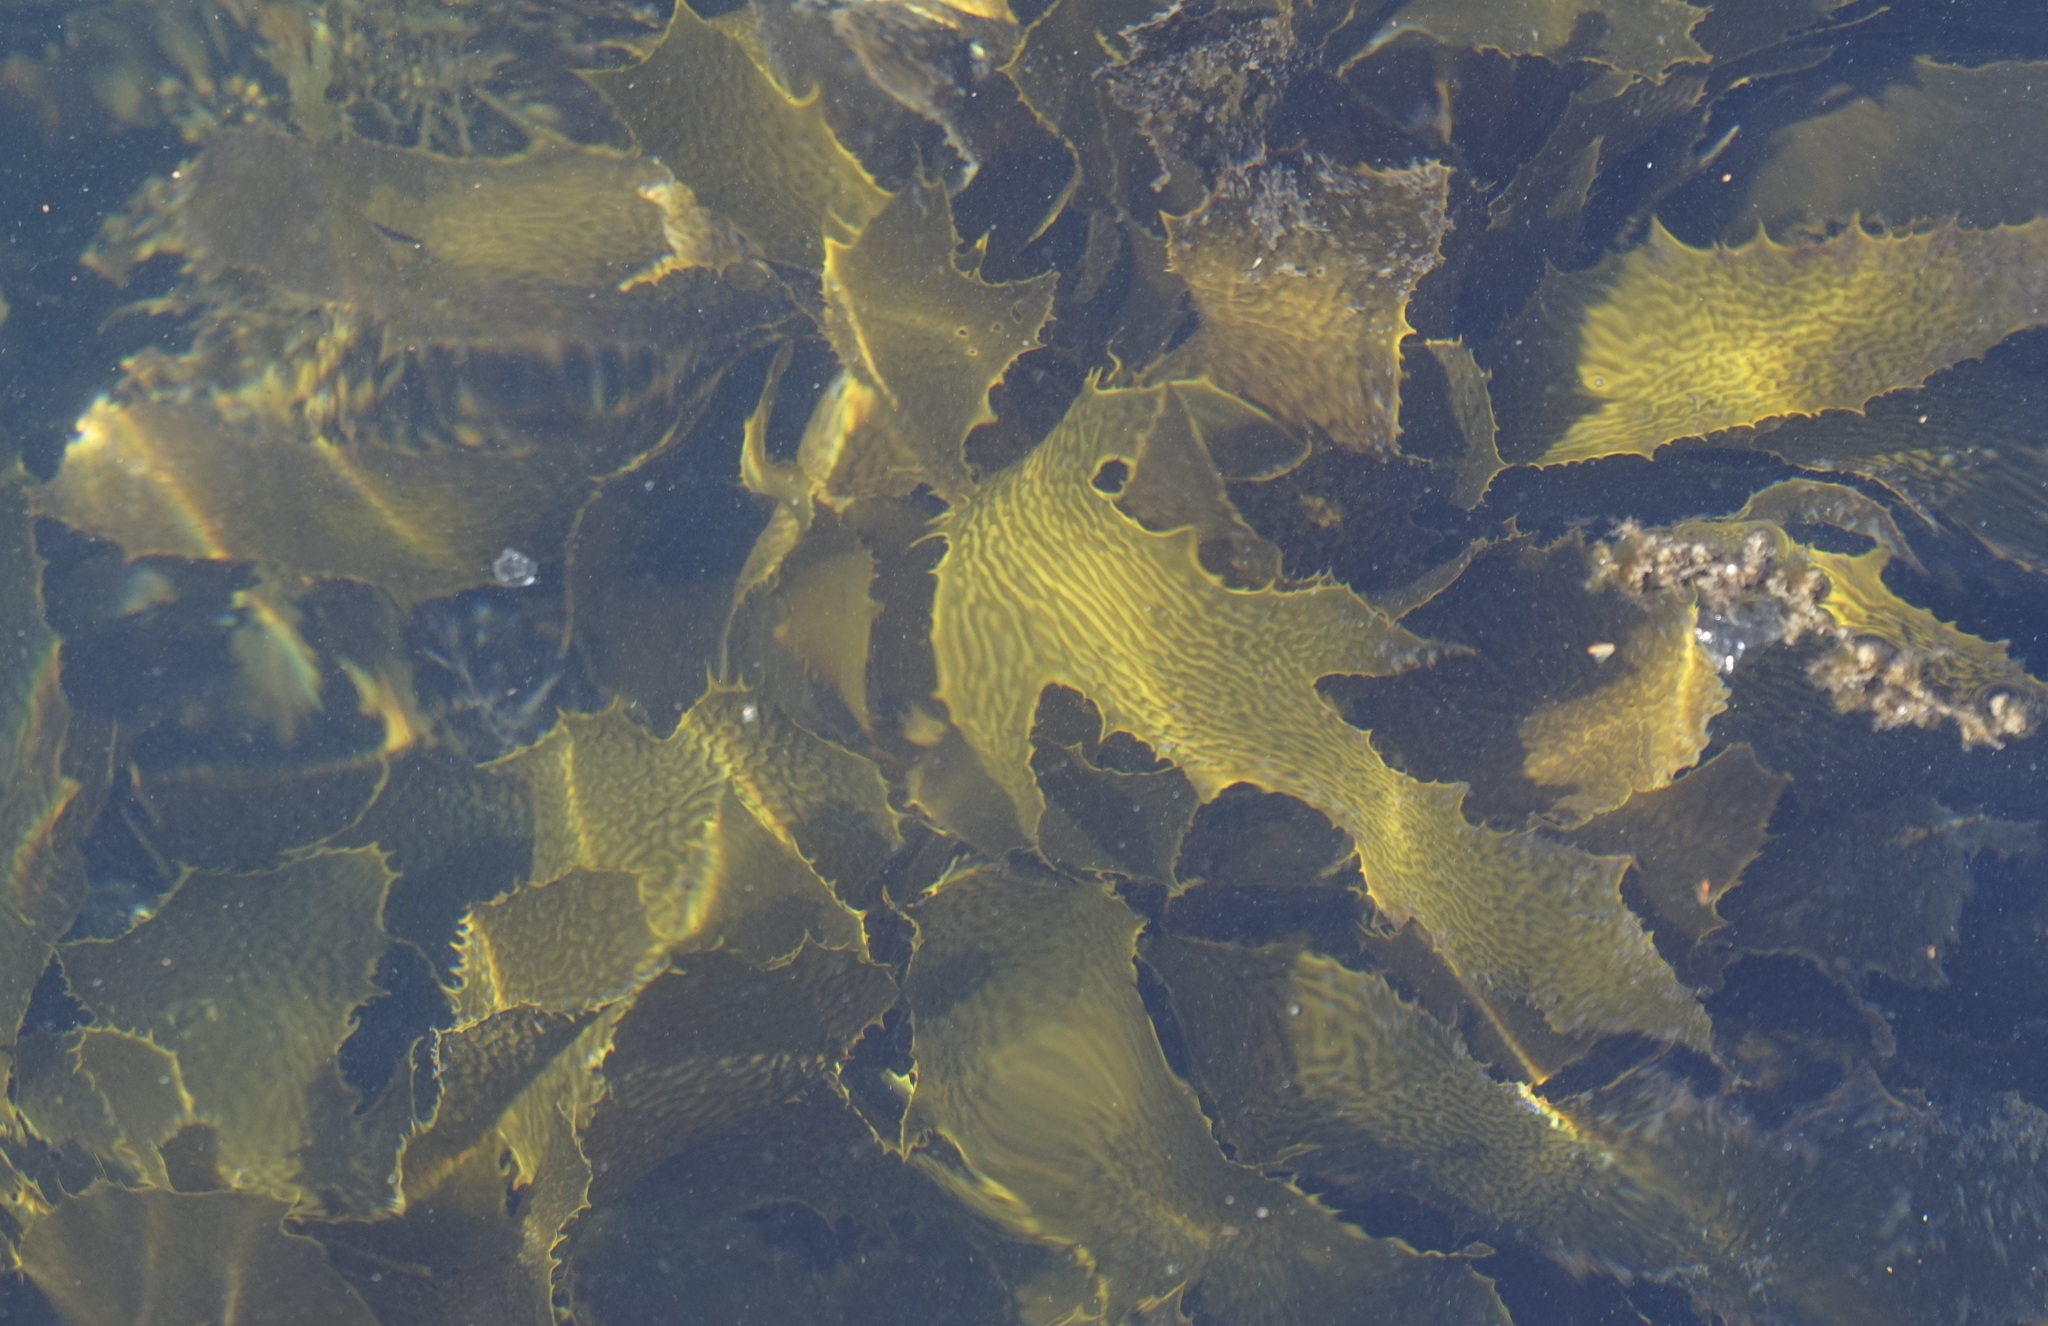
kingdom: Chromista
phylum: Ochrophyta
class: Phaeophyceae
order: Laminariales
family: Lessoniaceae
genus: Ecklonia
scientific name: Ecklonia radiata
